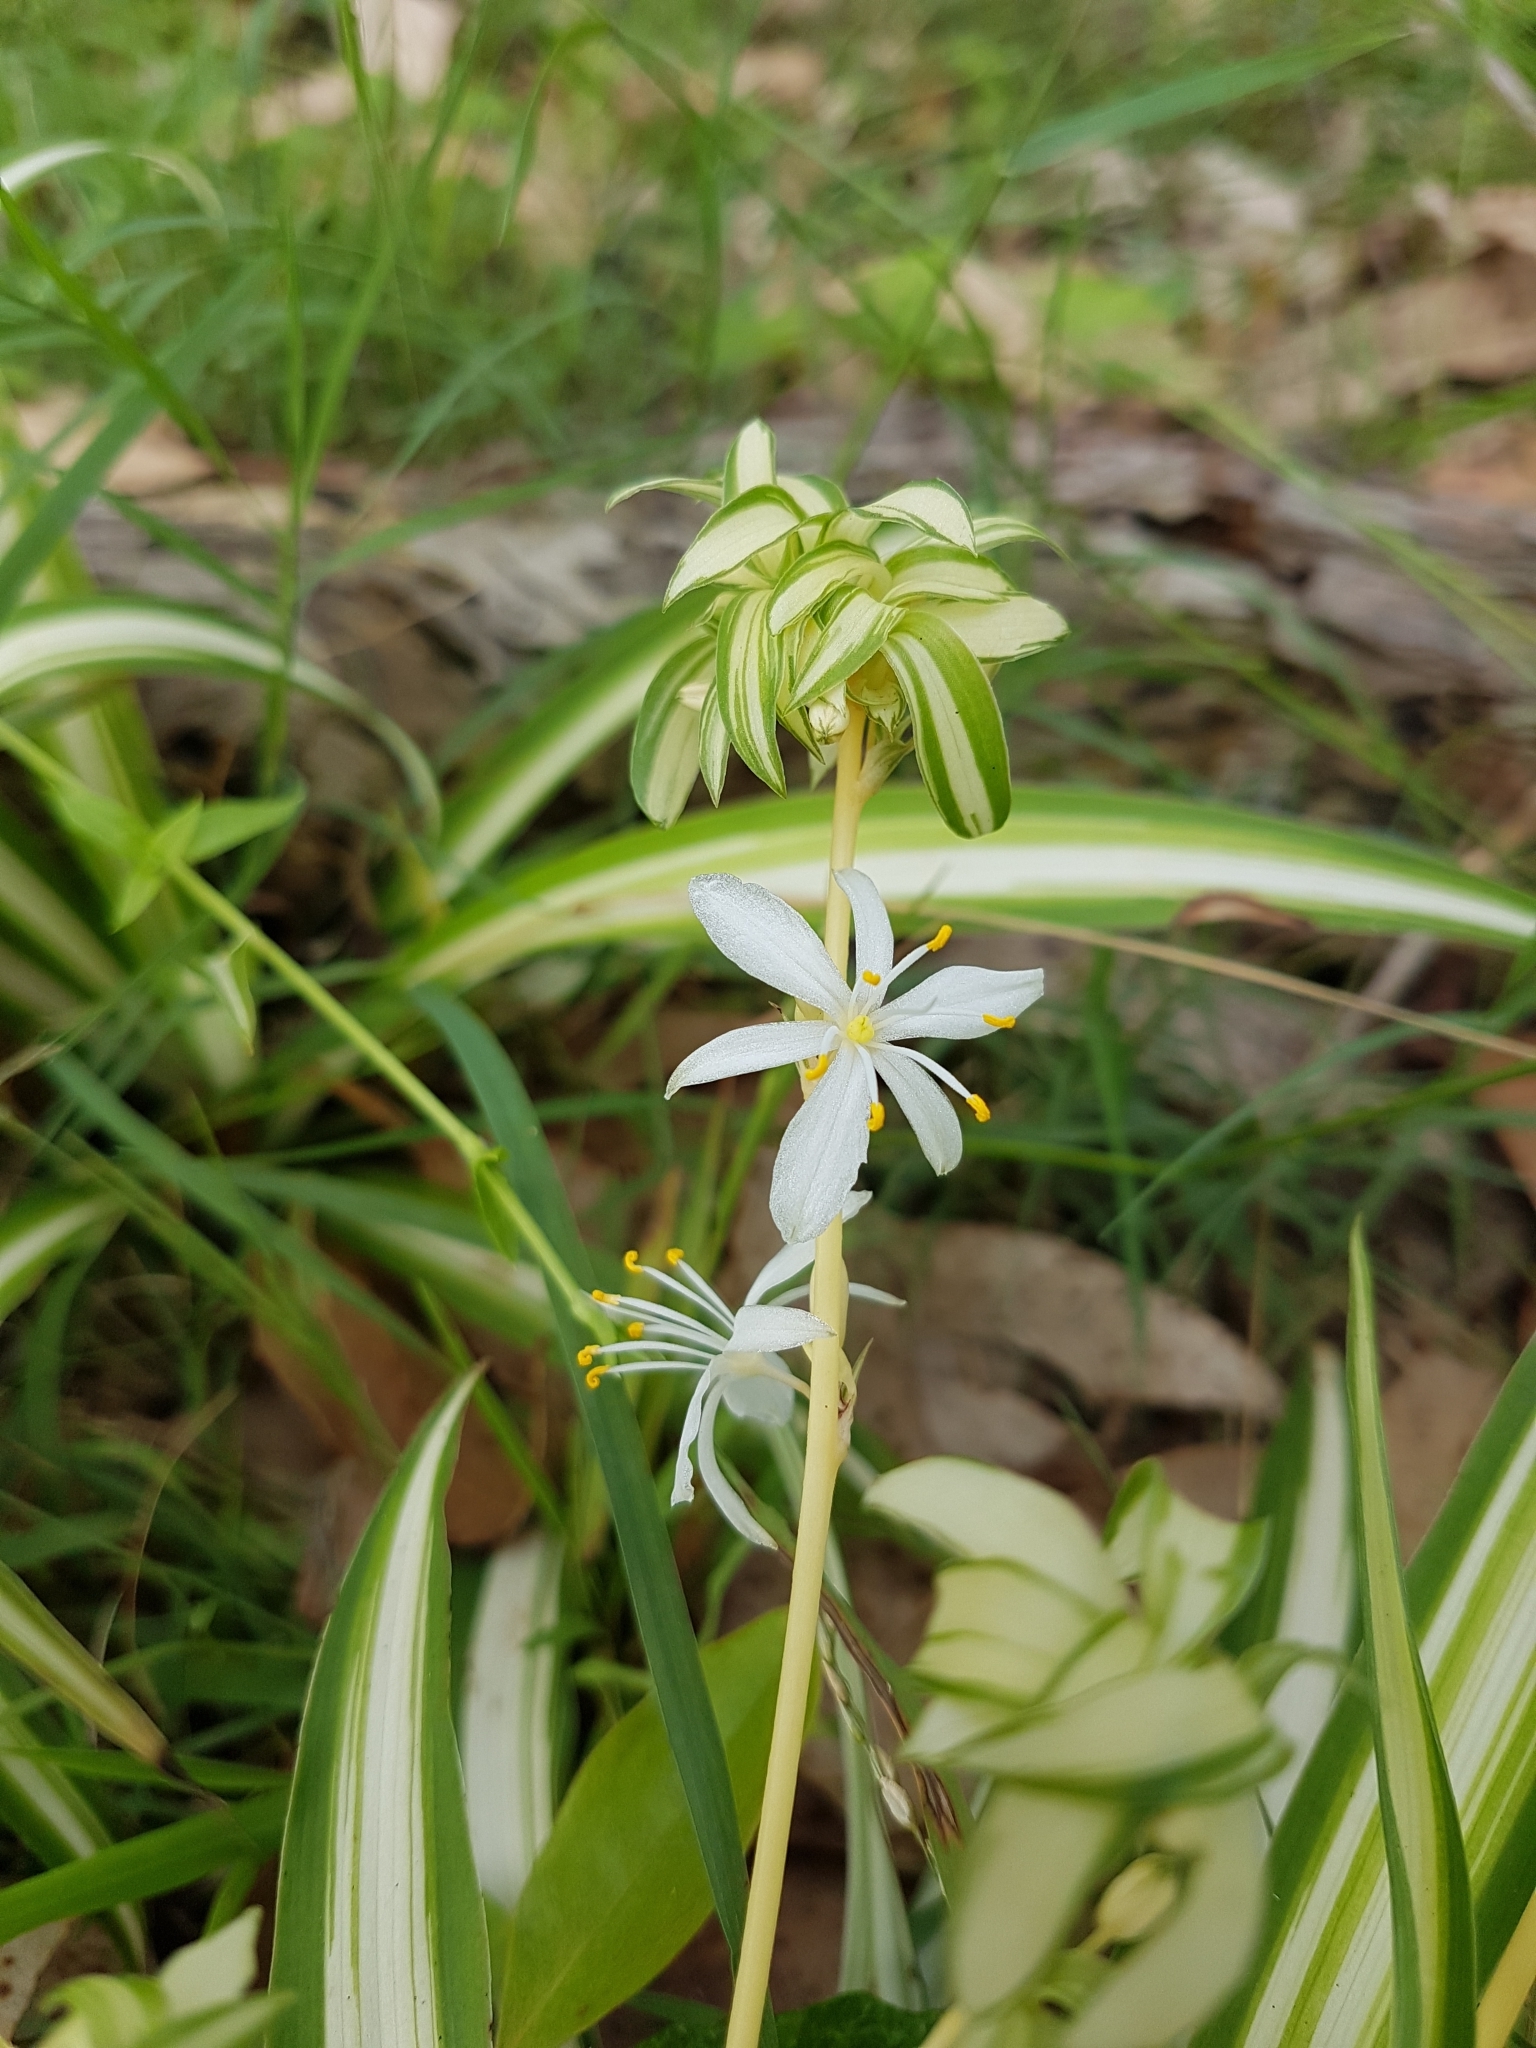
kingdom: Plantae
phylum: Tracheophyta
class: Liliopsida
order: Asparagales
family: Asparagaceae
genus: Chlorophytum
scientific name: Chlorophytum comosum
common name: Spider plant
